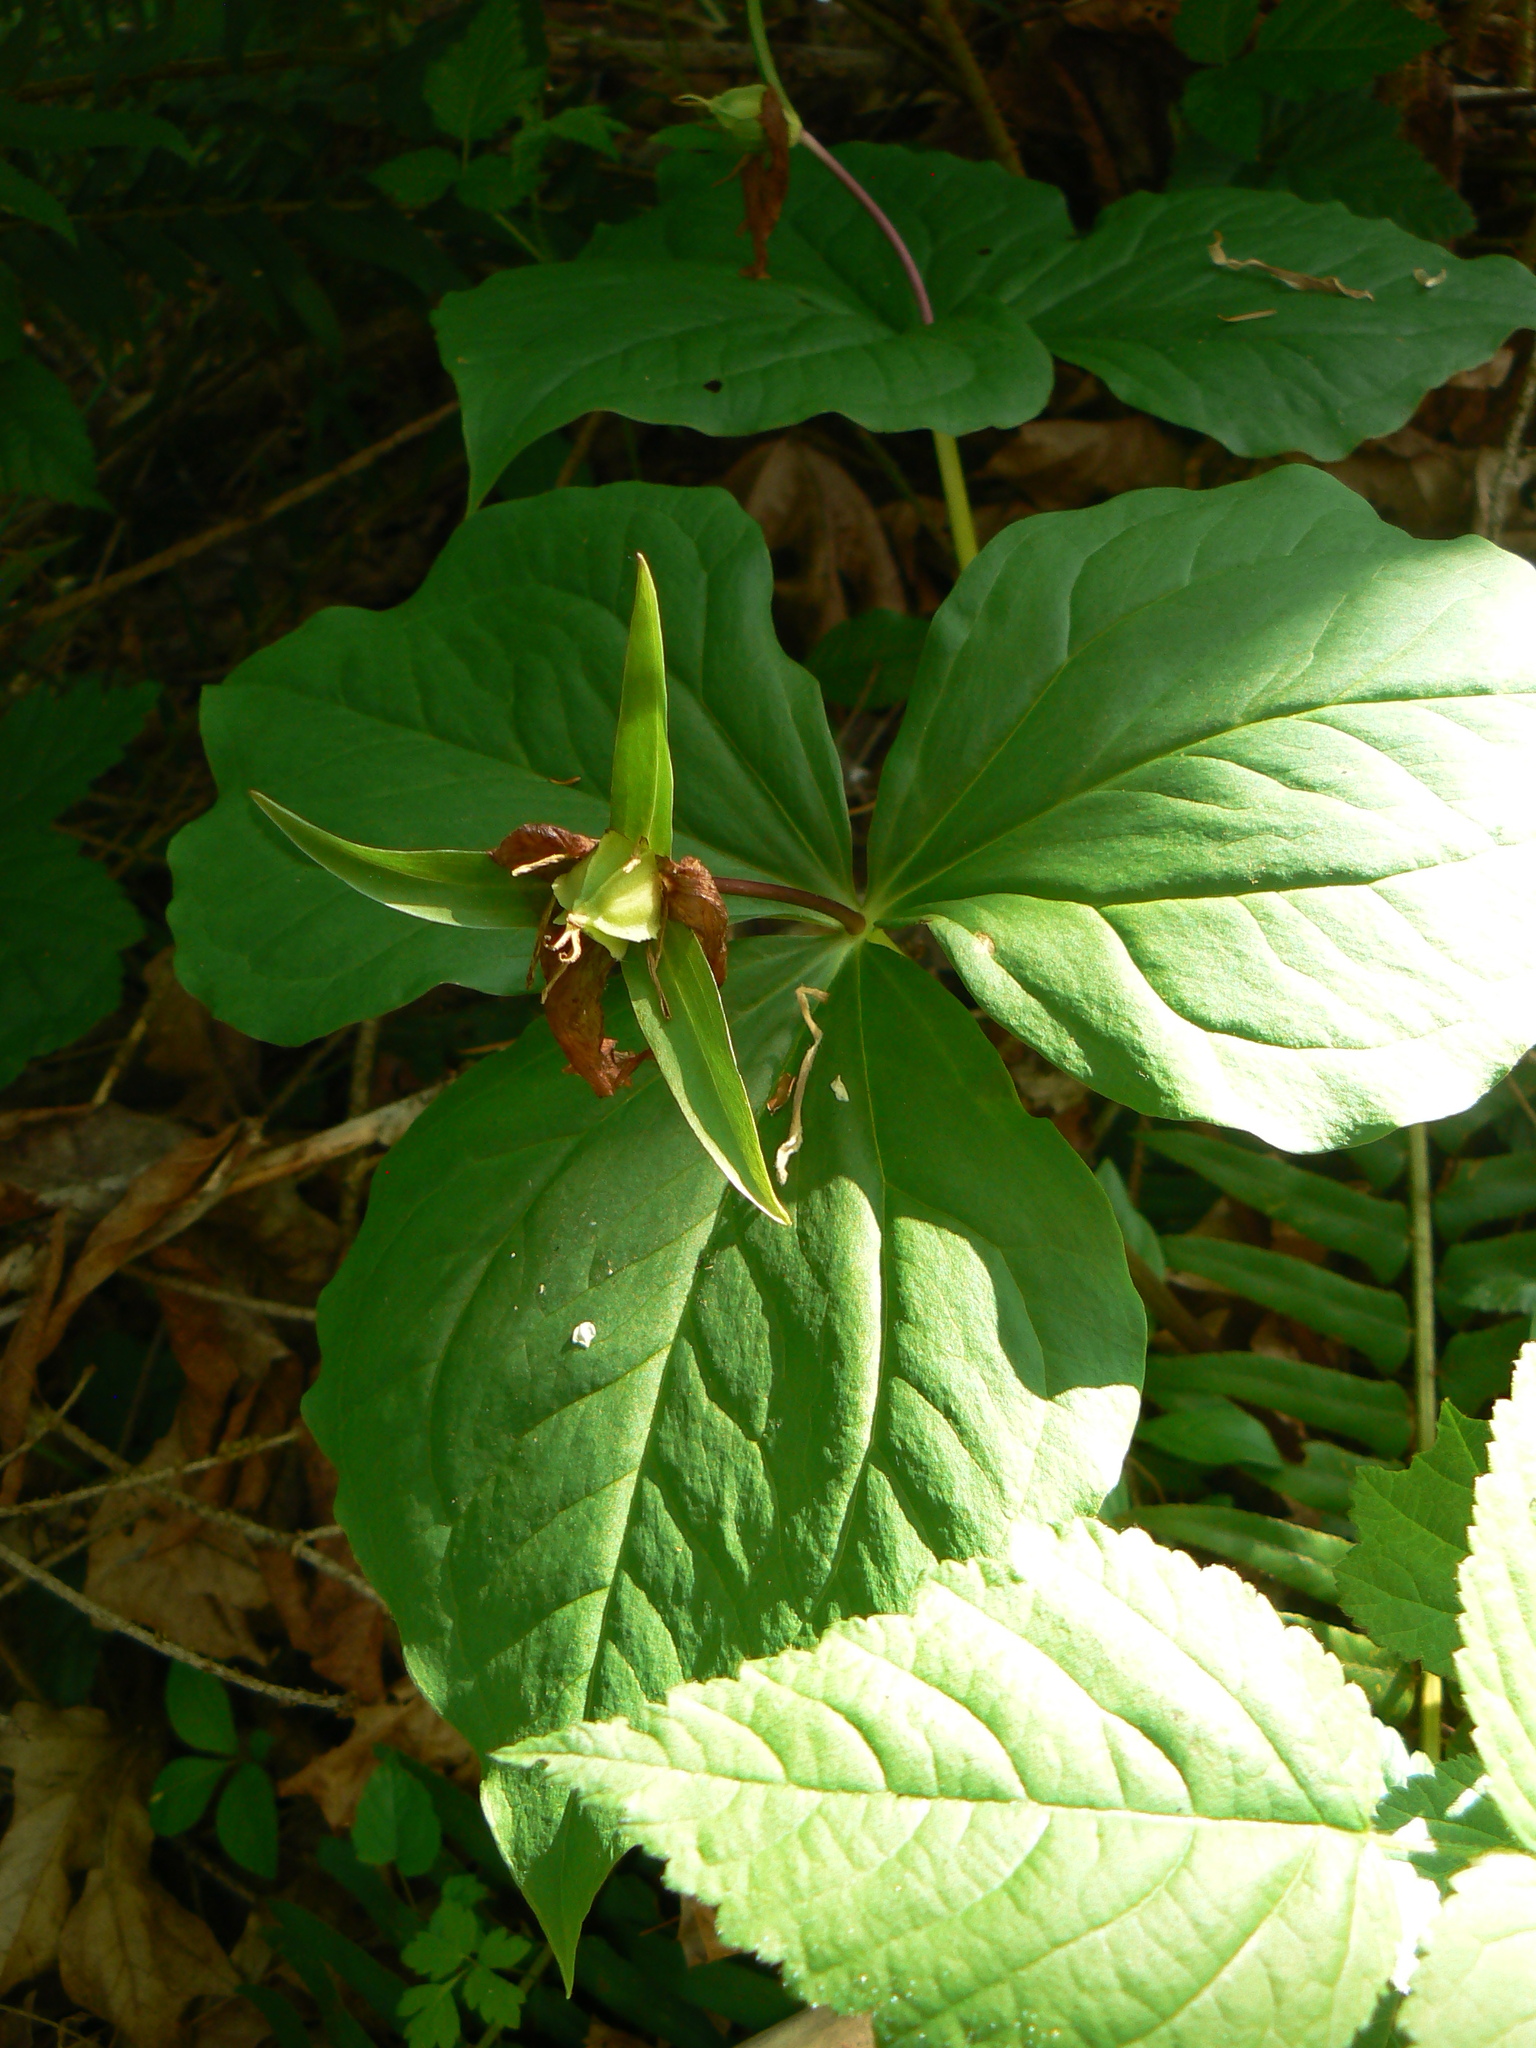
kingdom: Plantae
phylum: Tracheophyta
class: Liliopsida
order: Liliales
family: Melanthiaceae
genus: Trillium
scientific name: Trillium ovatum
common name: Pacific trillium
